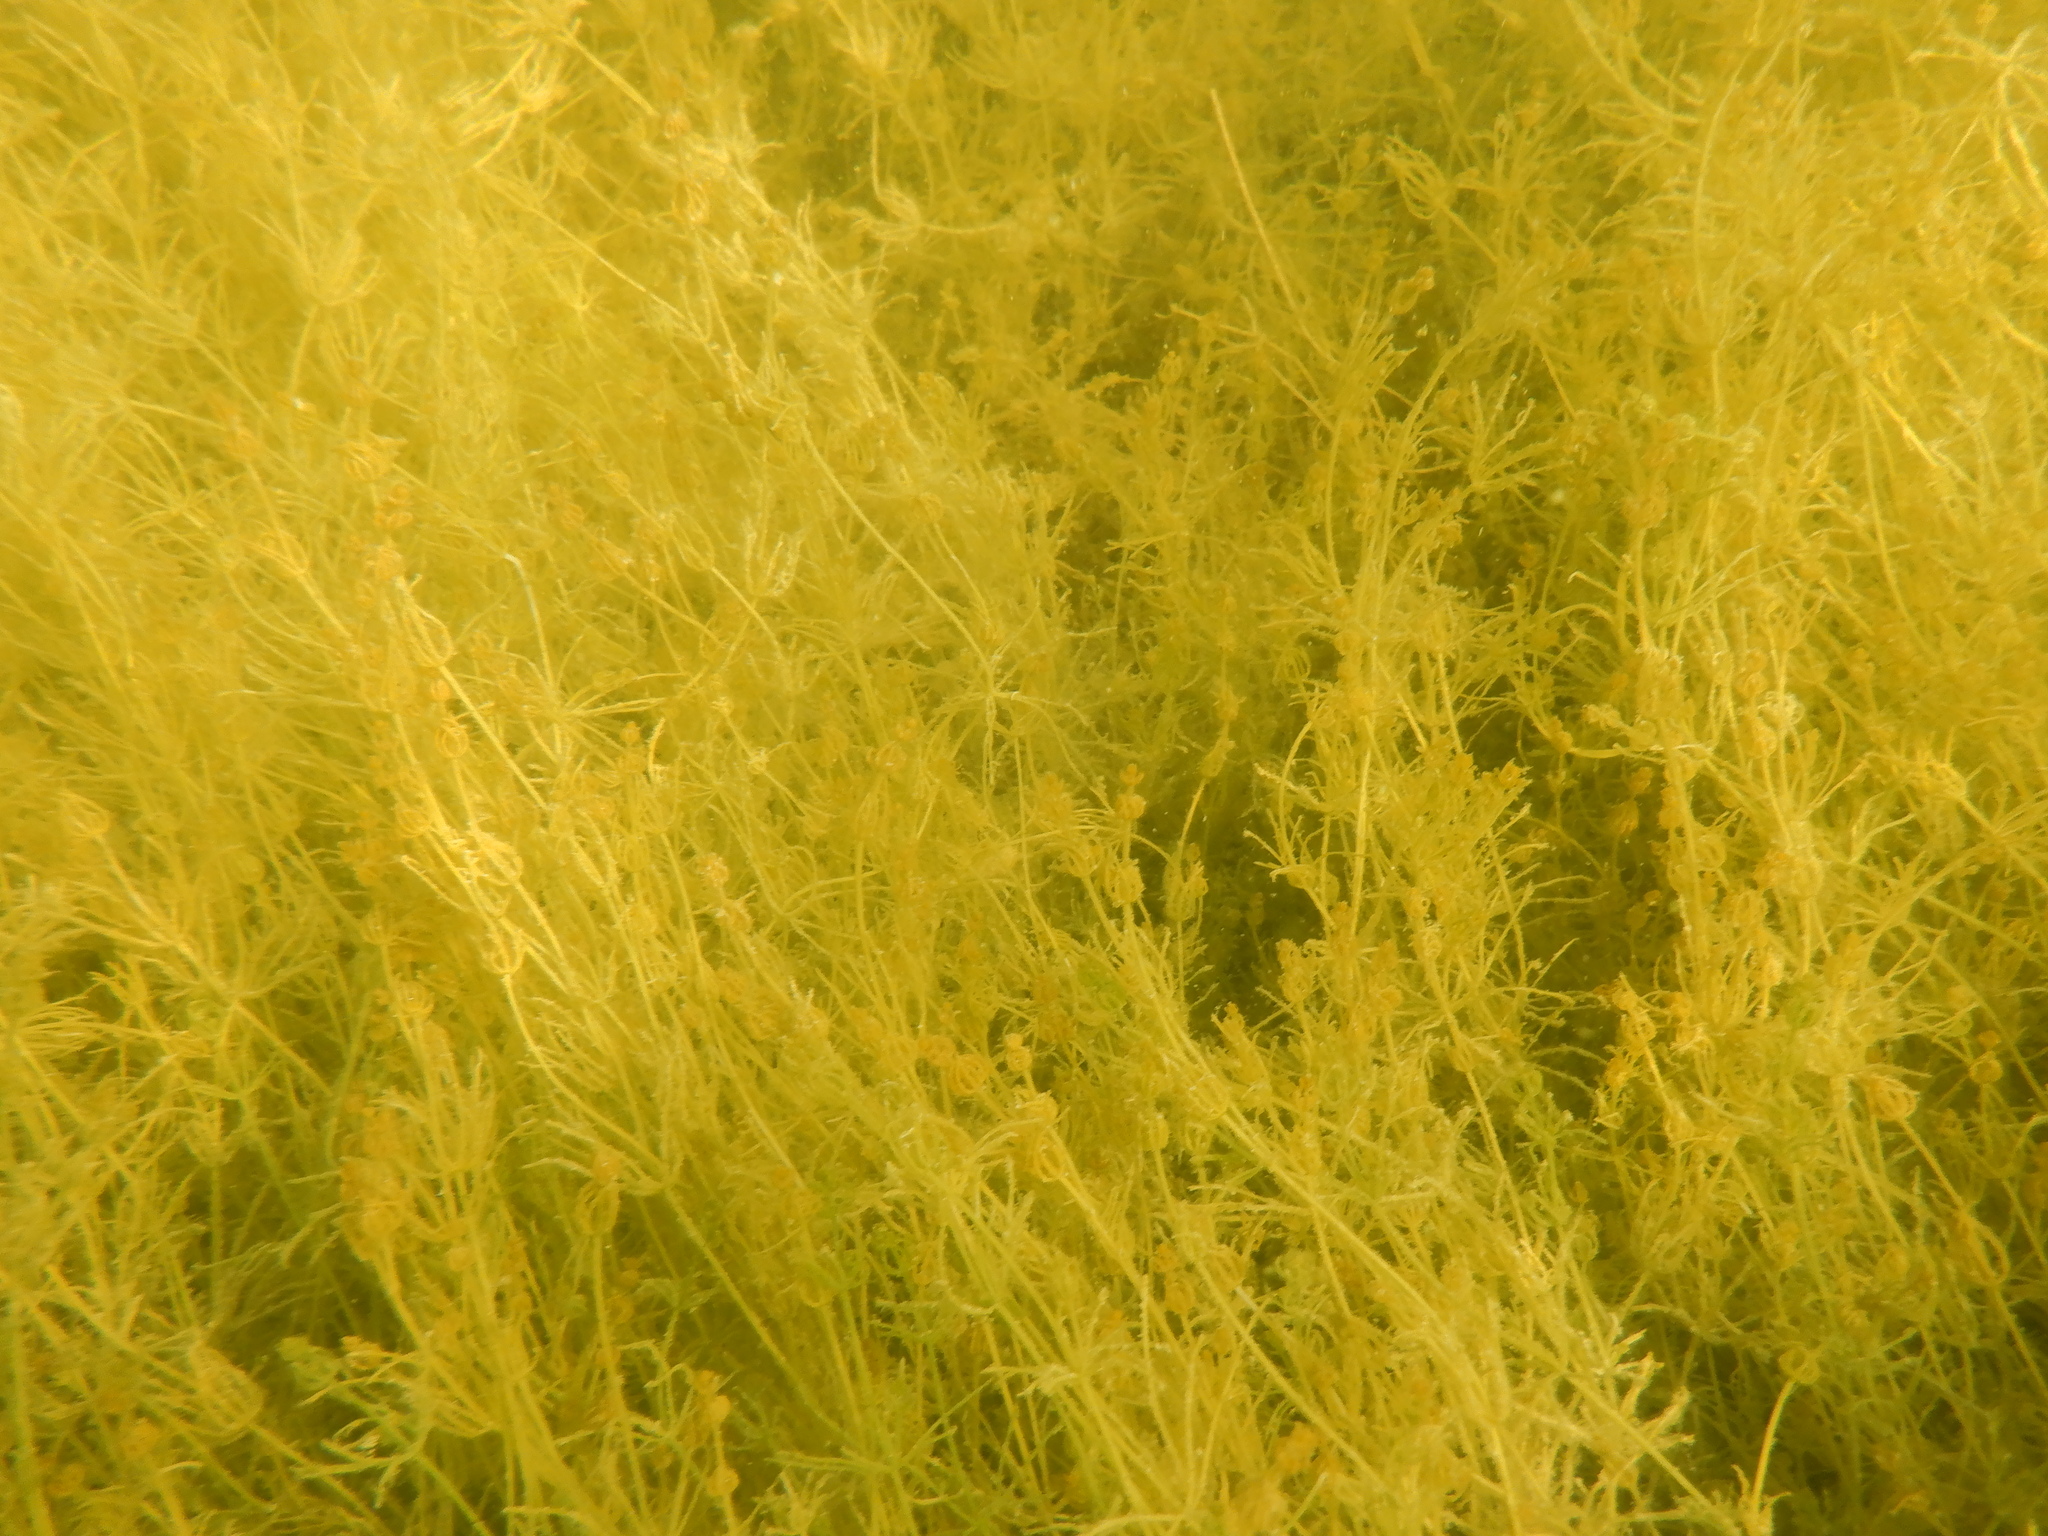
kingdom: Plantae
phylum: Charophyta
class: Charophyceae
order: Charales
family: Characeae
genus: Chara
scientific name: Chara
